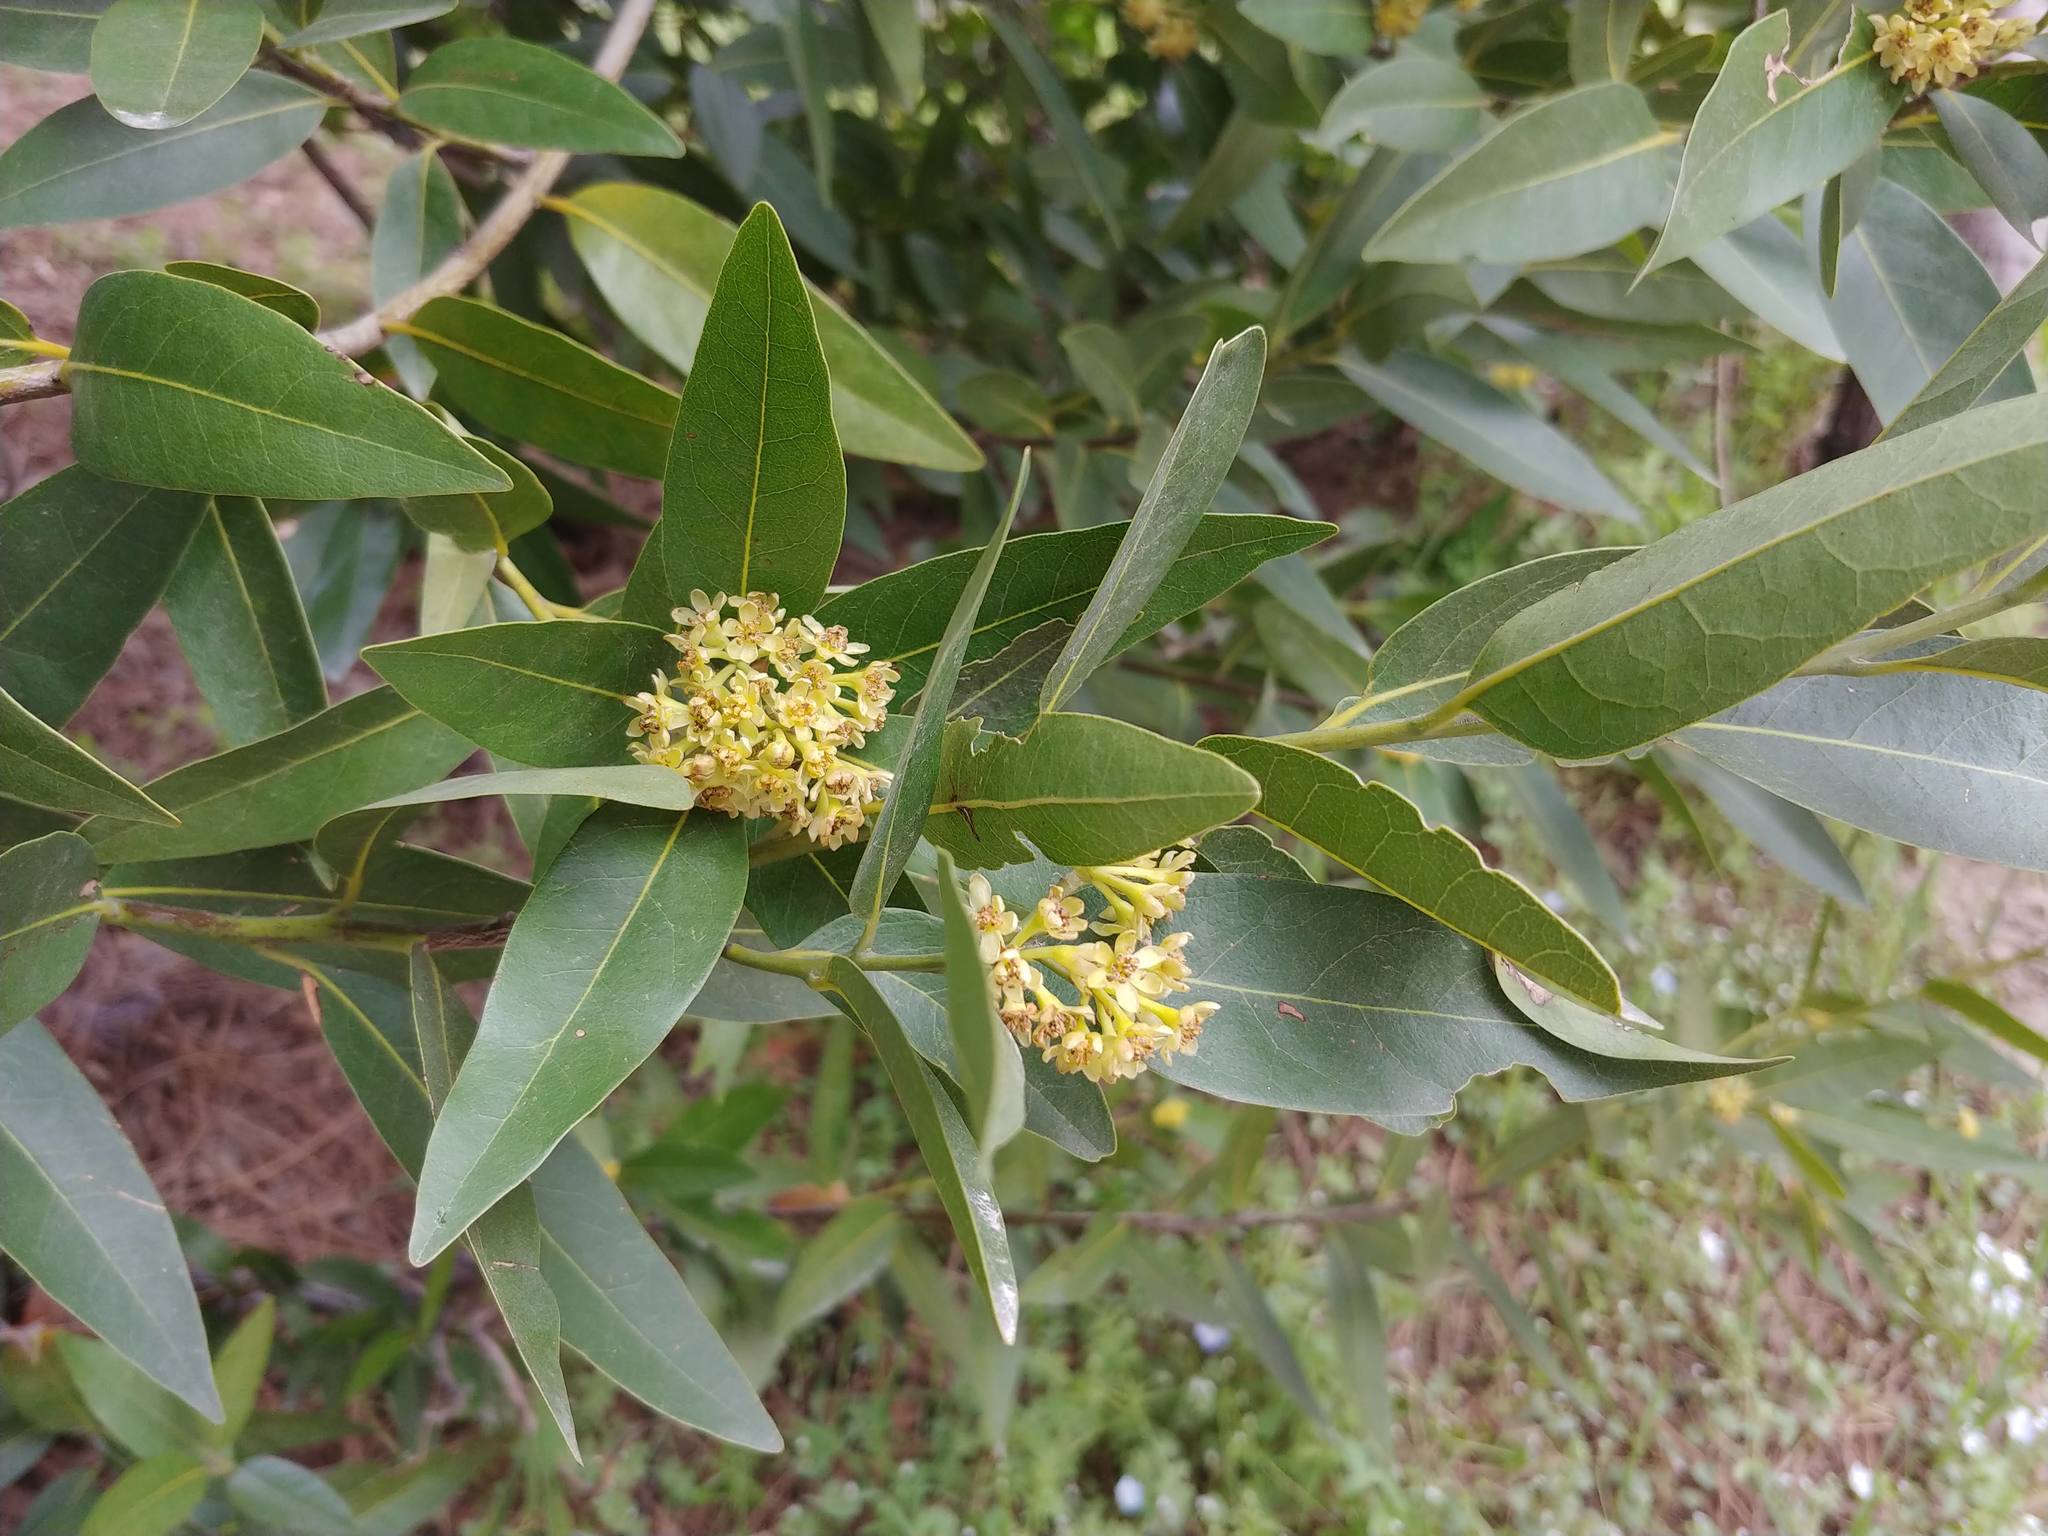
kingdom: Plantae
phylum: Tracheophyta
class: Magnoliopsida
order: Laurales
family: Lauraceae
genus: Umbellularia
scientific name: Umbellularia californica
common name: California bay
